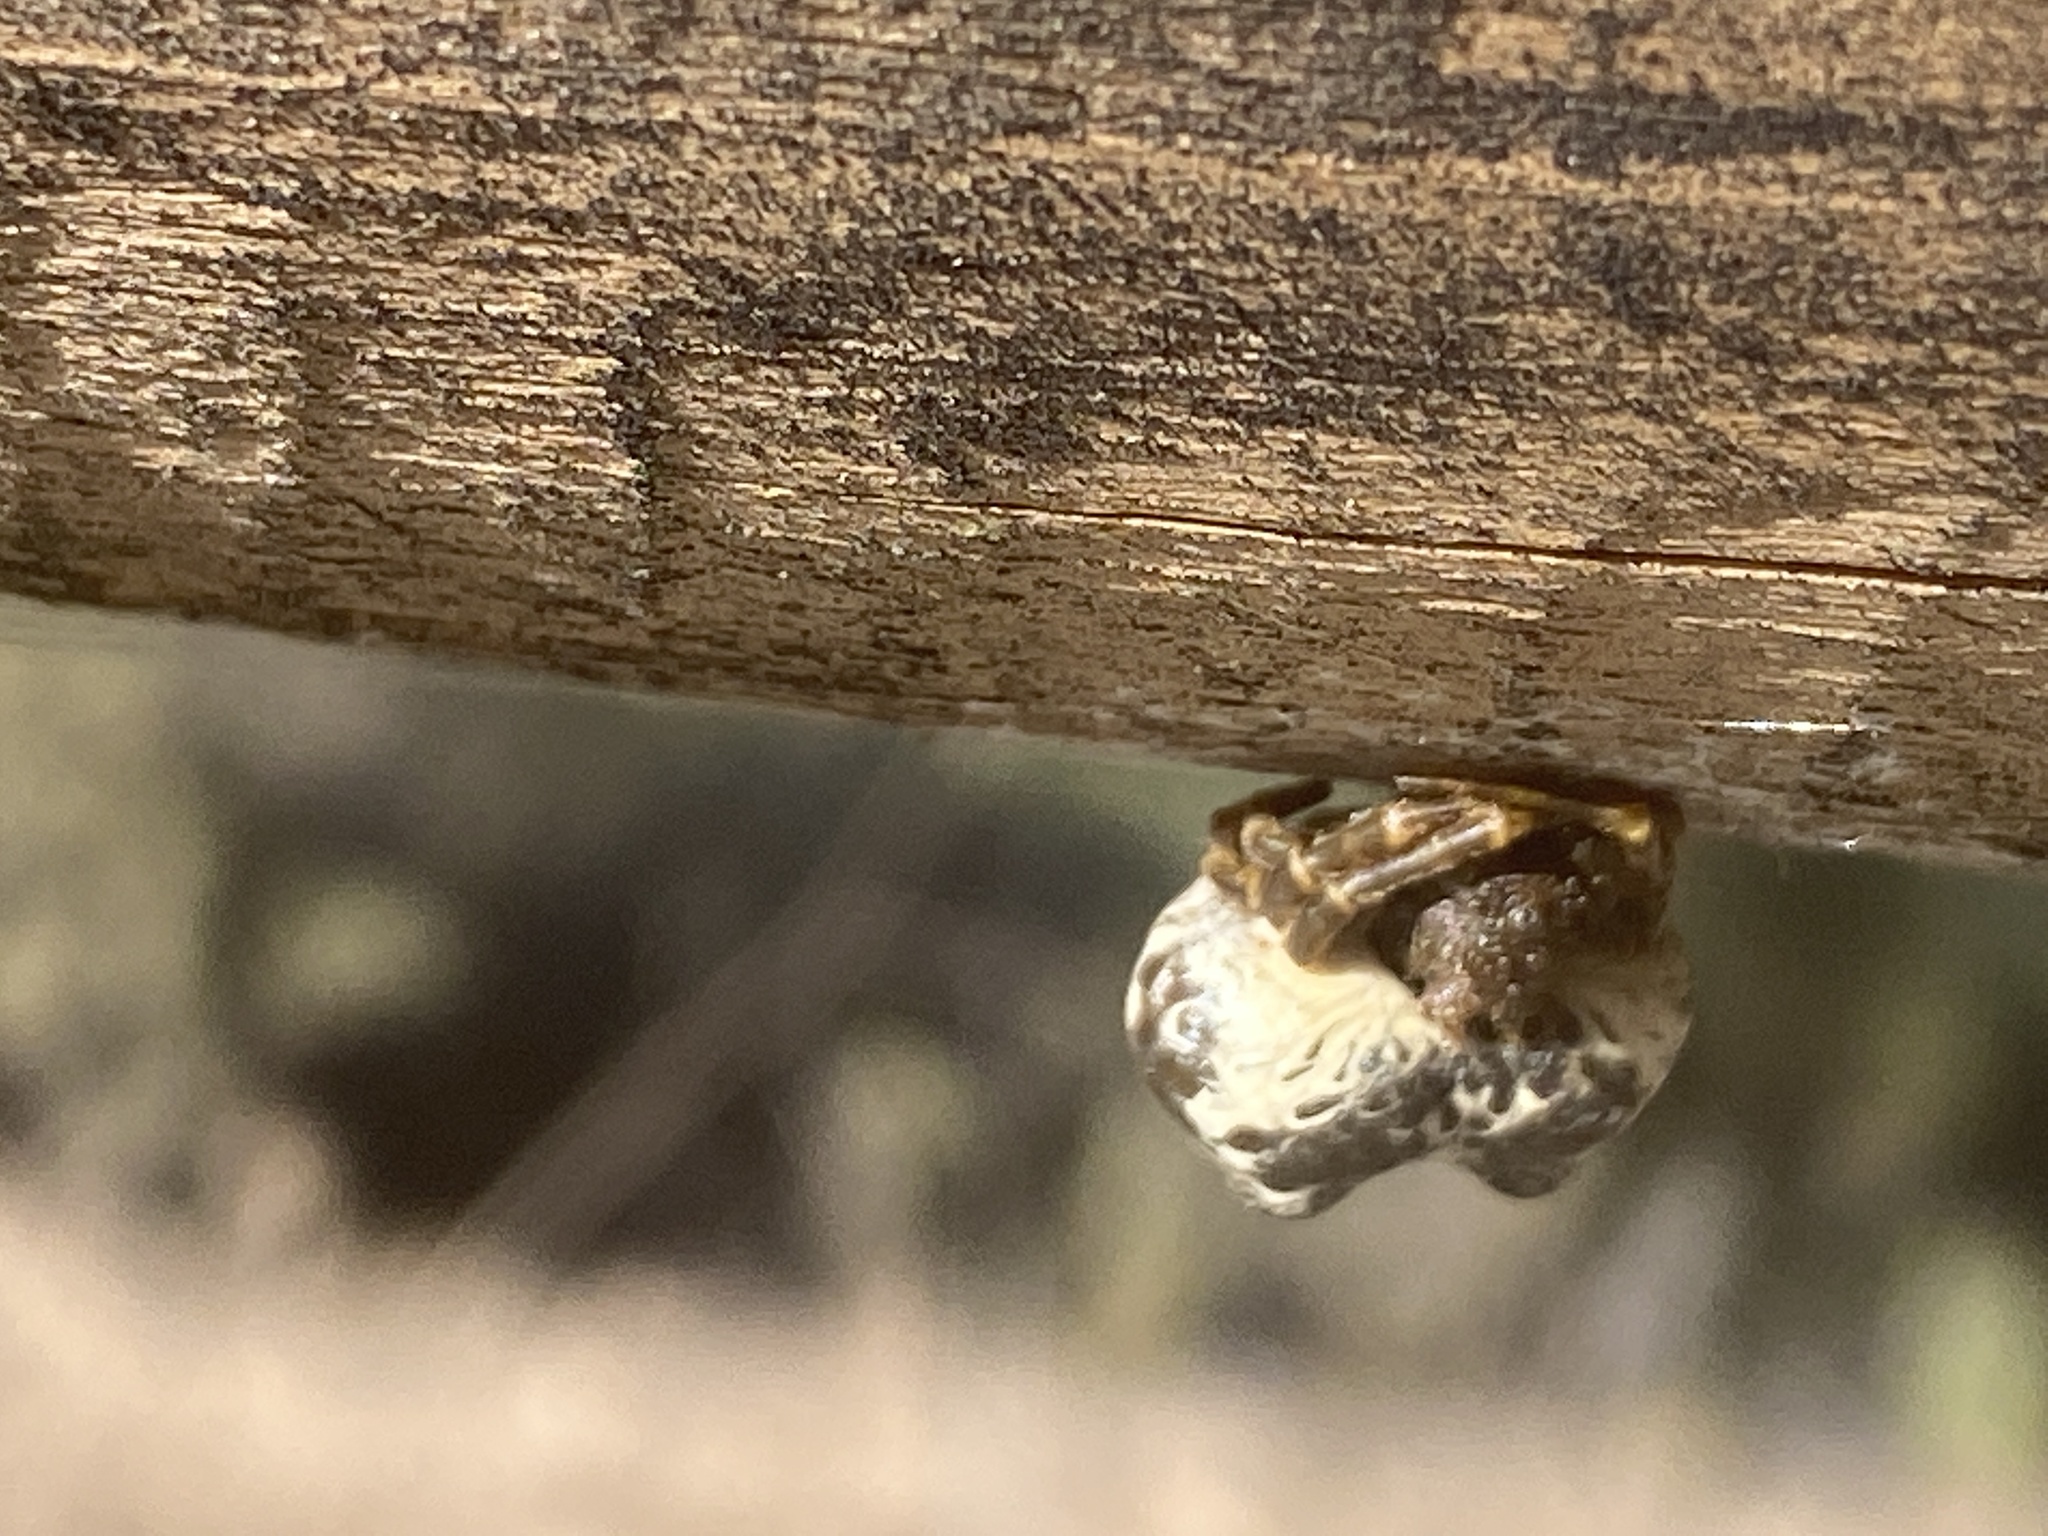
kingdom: Animalia
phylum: Arthropoda
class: Arachnida
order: Araneae
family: Araneidae
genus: Mastophora
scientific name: Mastophora cornigera
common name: Orb weavers
